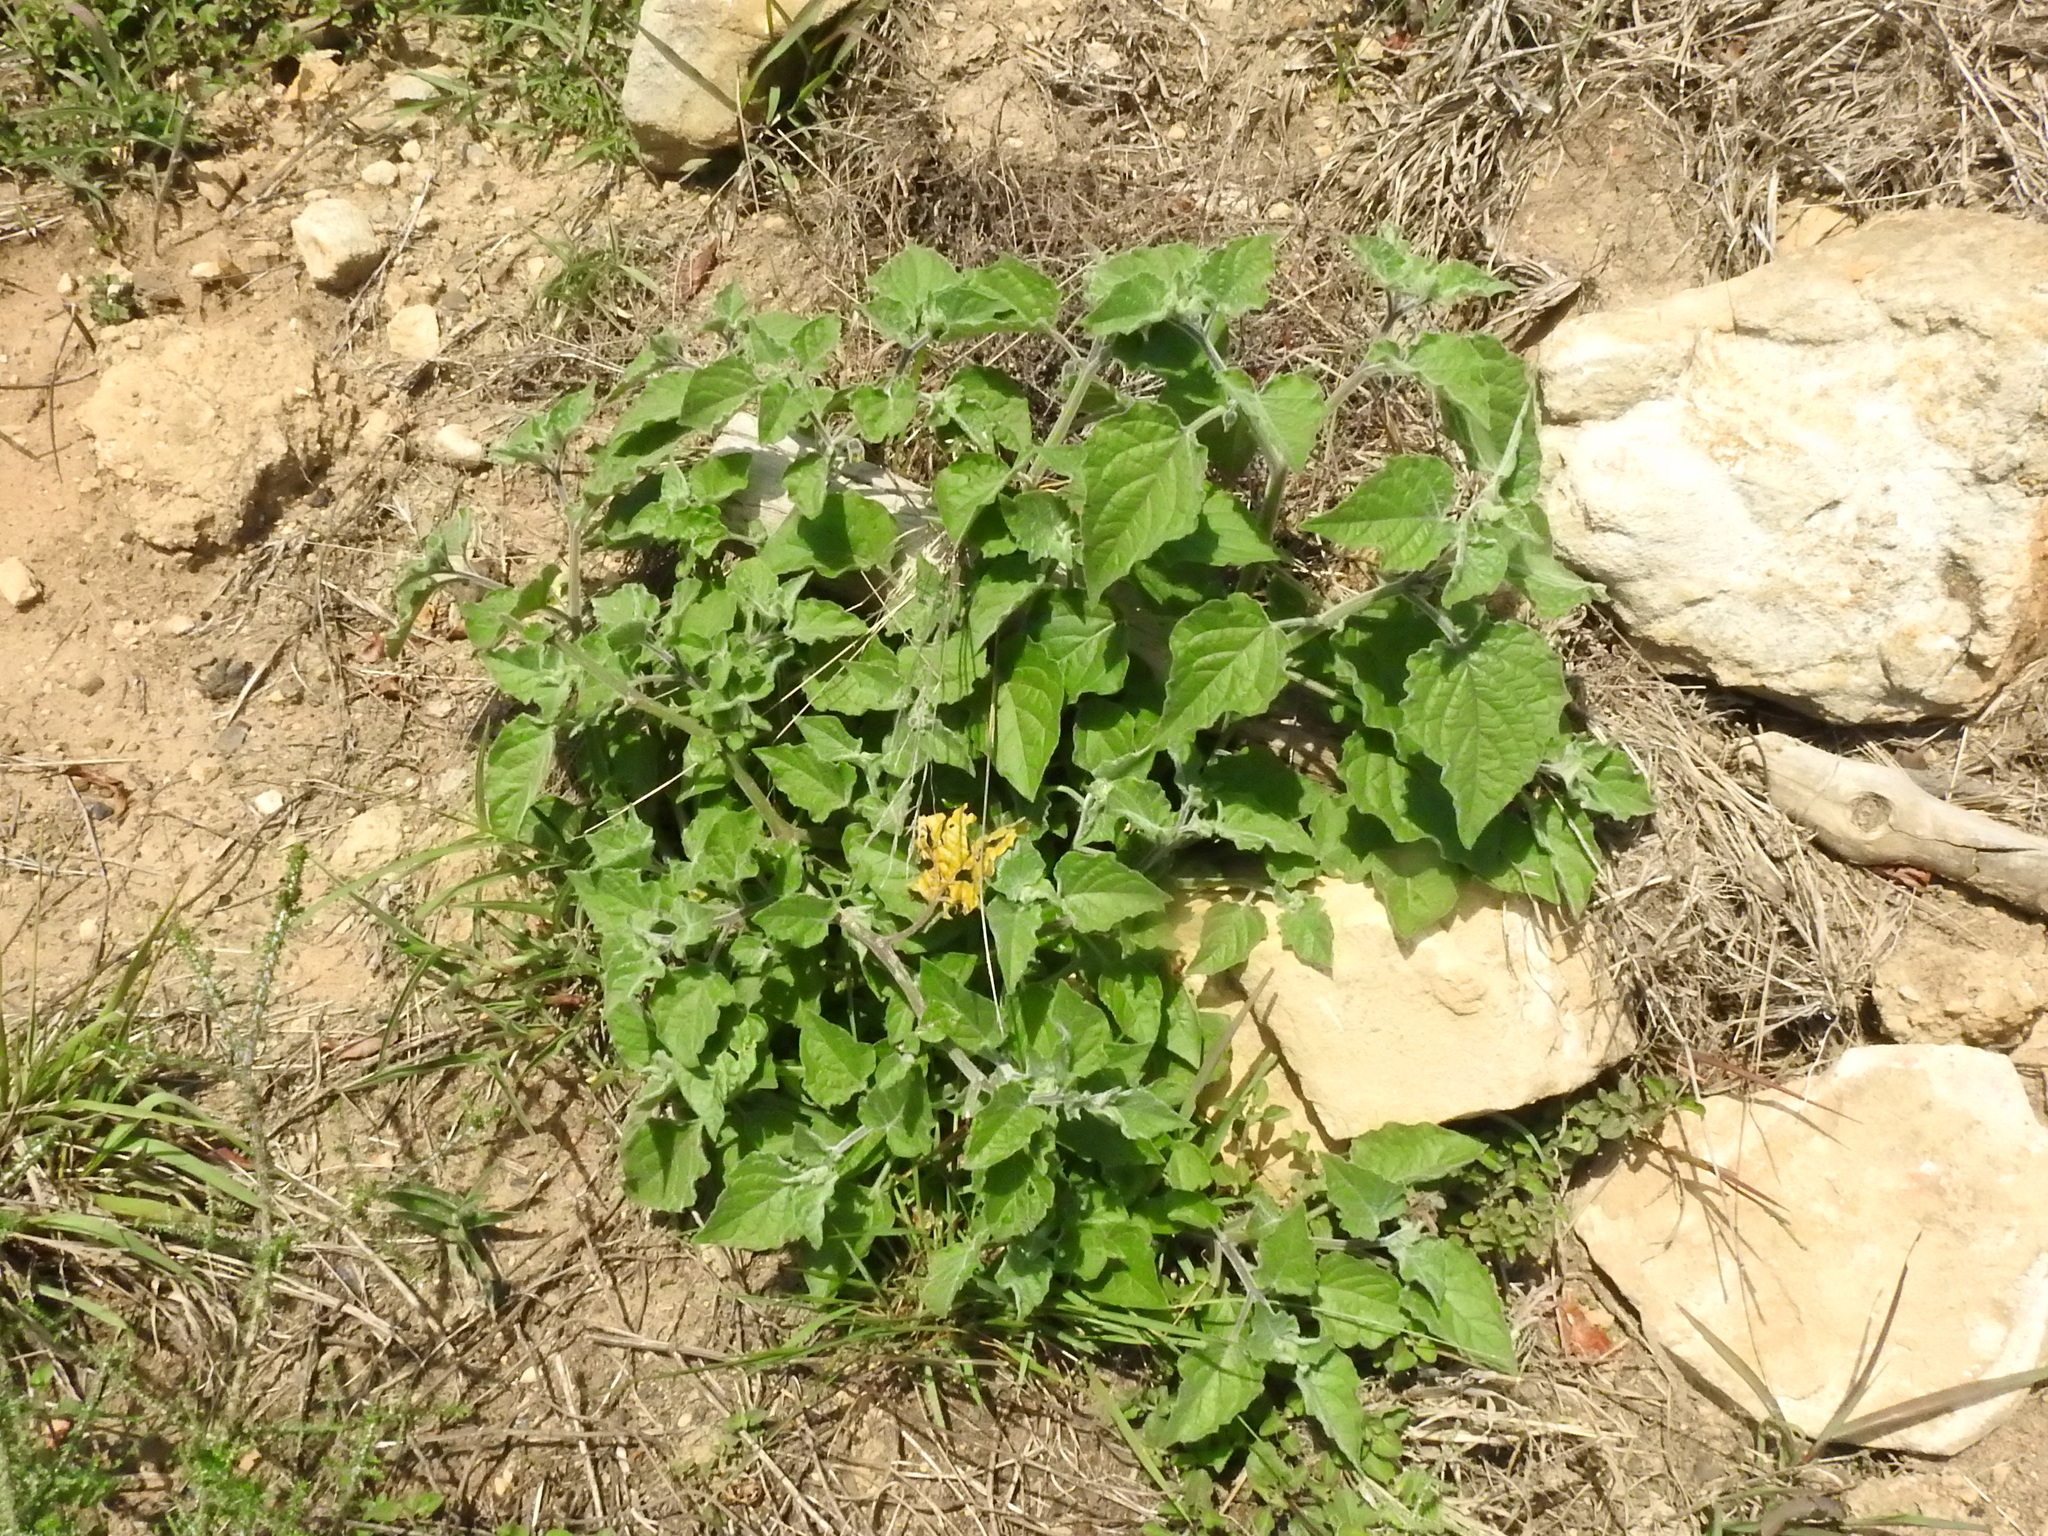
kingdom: Plantae
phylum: Tracheophyta
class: Magnoliopsida
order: Solanales
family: Solanaceae
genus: Physalis
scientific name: Physalis peruviana
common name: Cape-gooseberry
